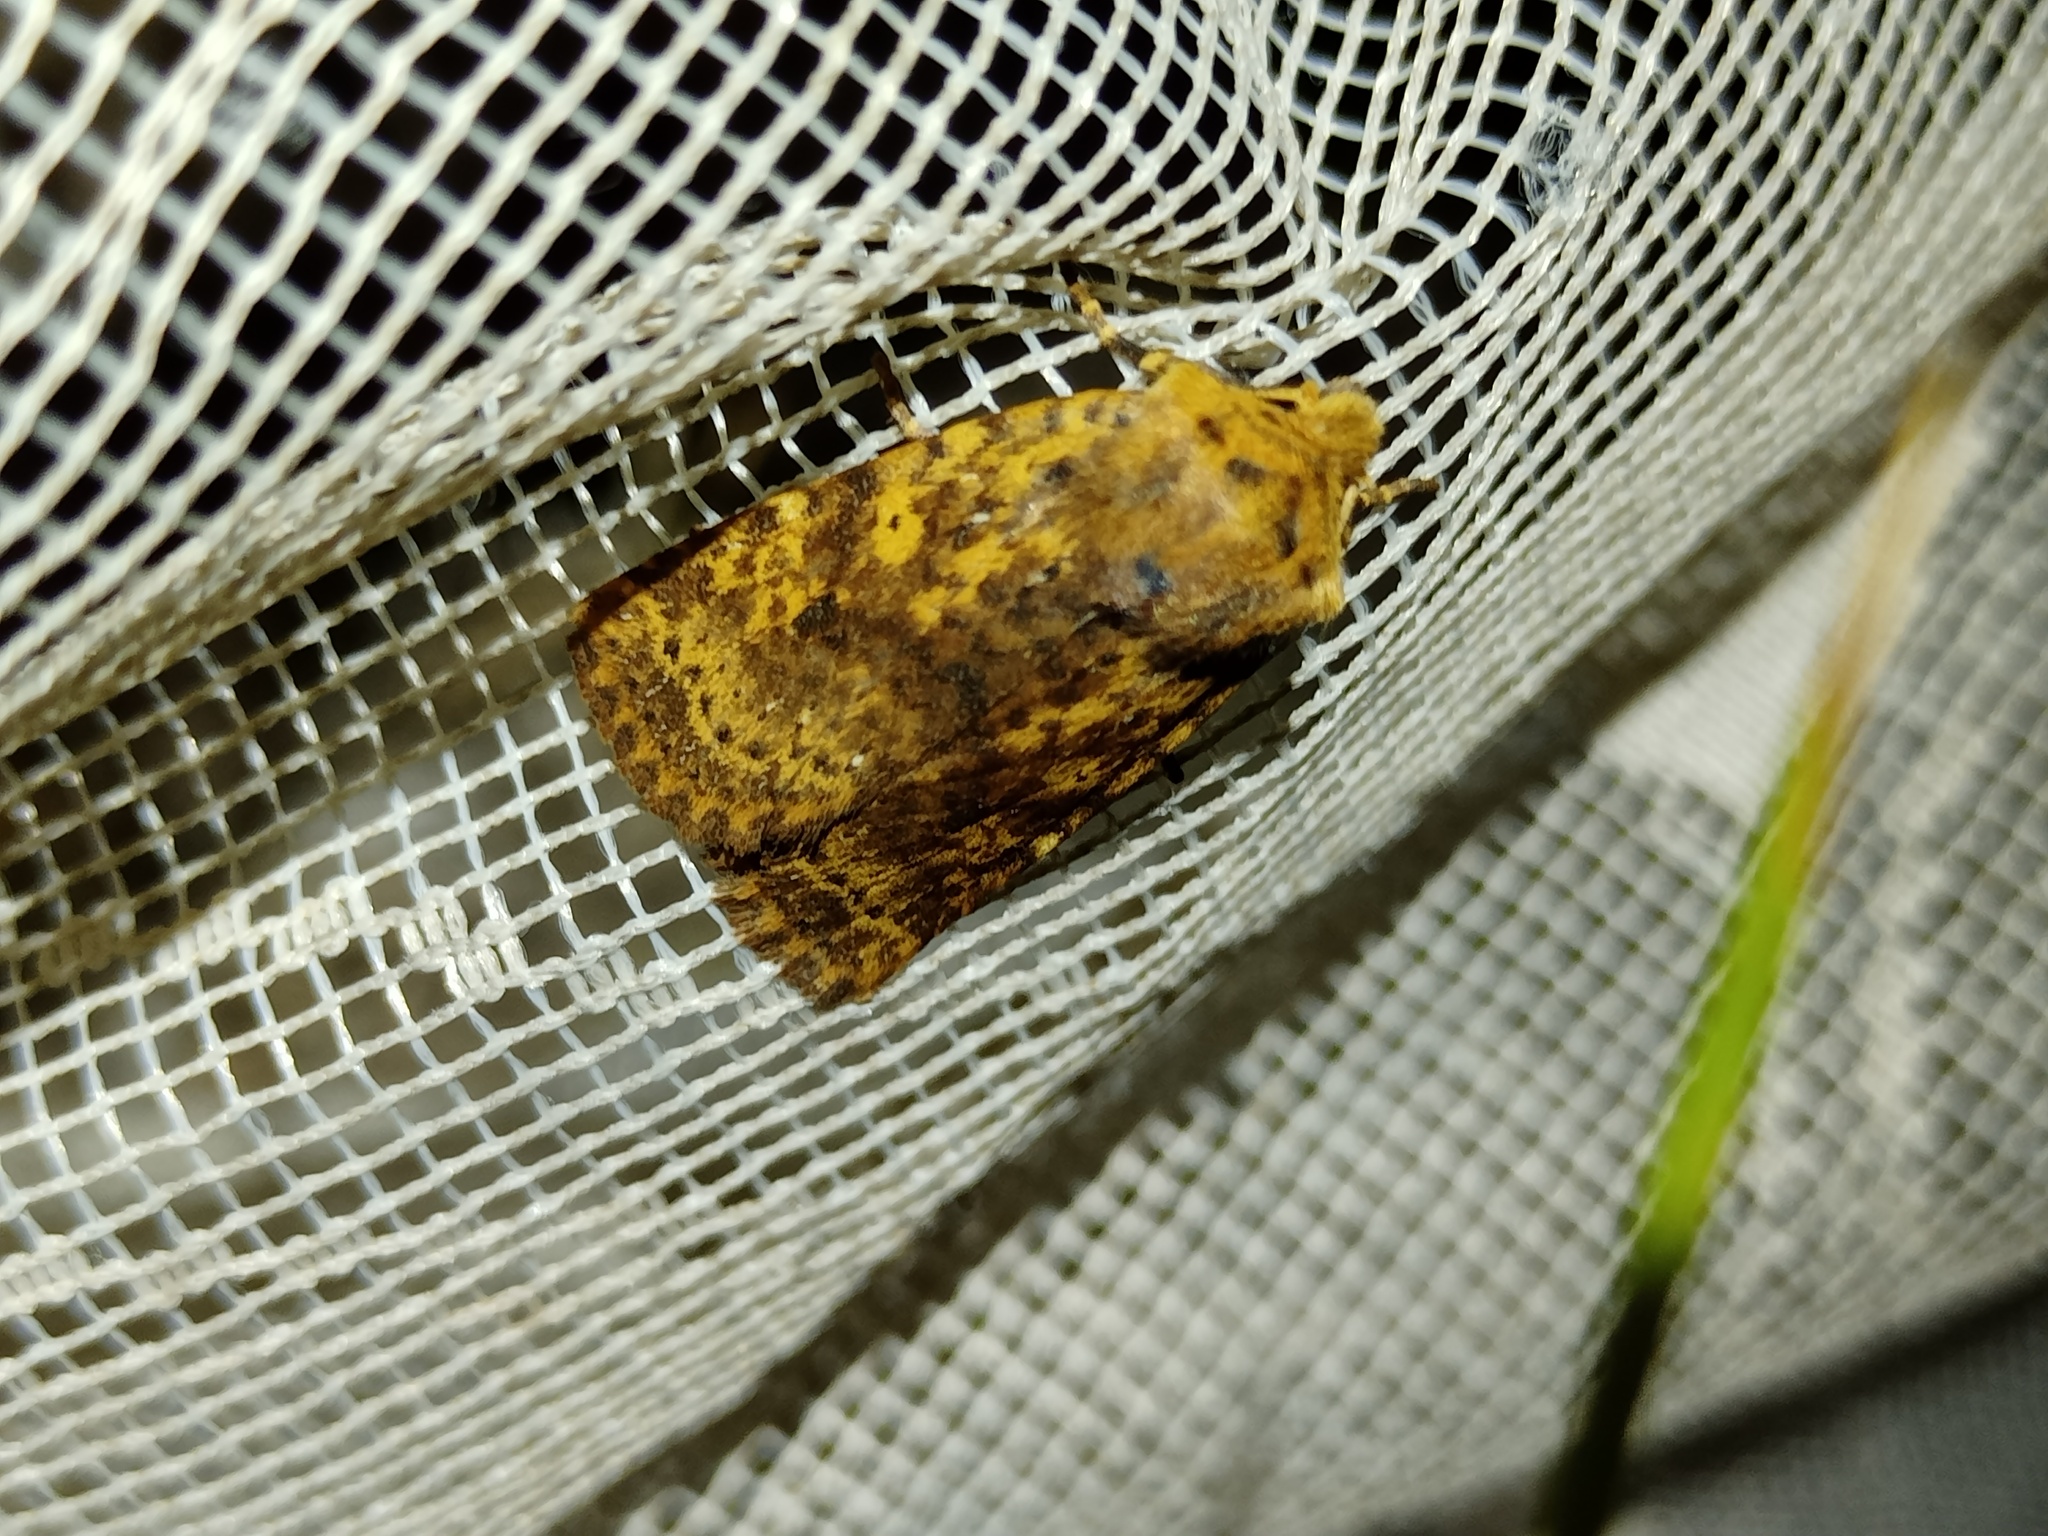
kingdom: Animalia
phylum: Arthropoda
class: Insecta
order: Lepidoptera
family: Noctuidae
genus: Conistra
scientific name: Conistra rubiginea
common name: Dotted chestnut
